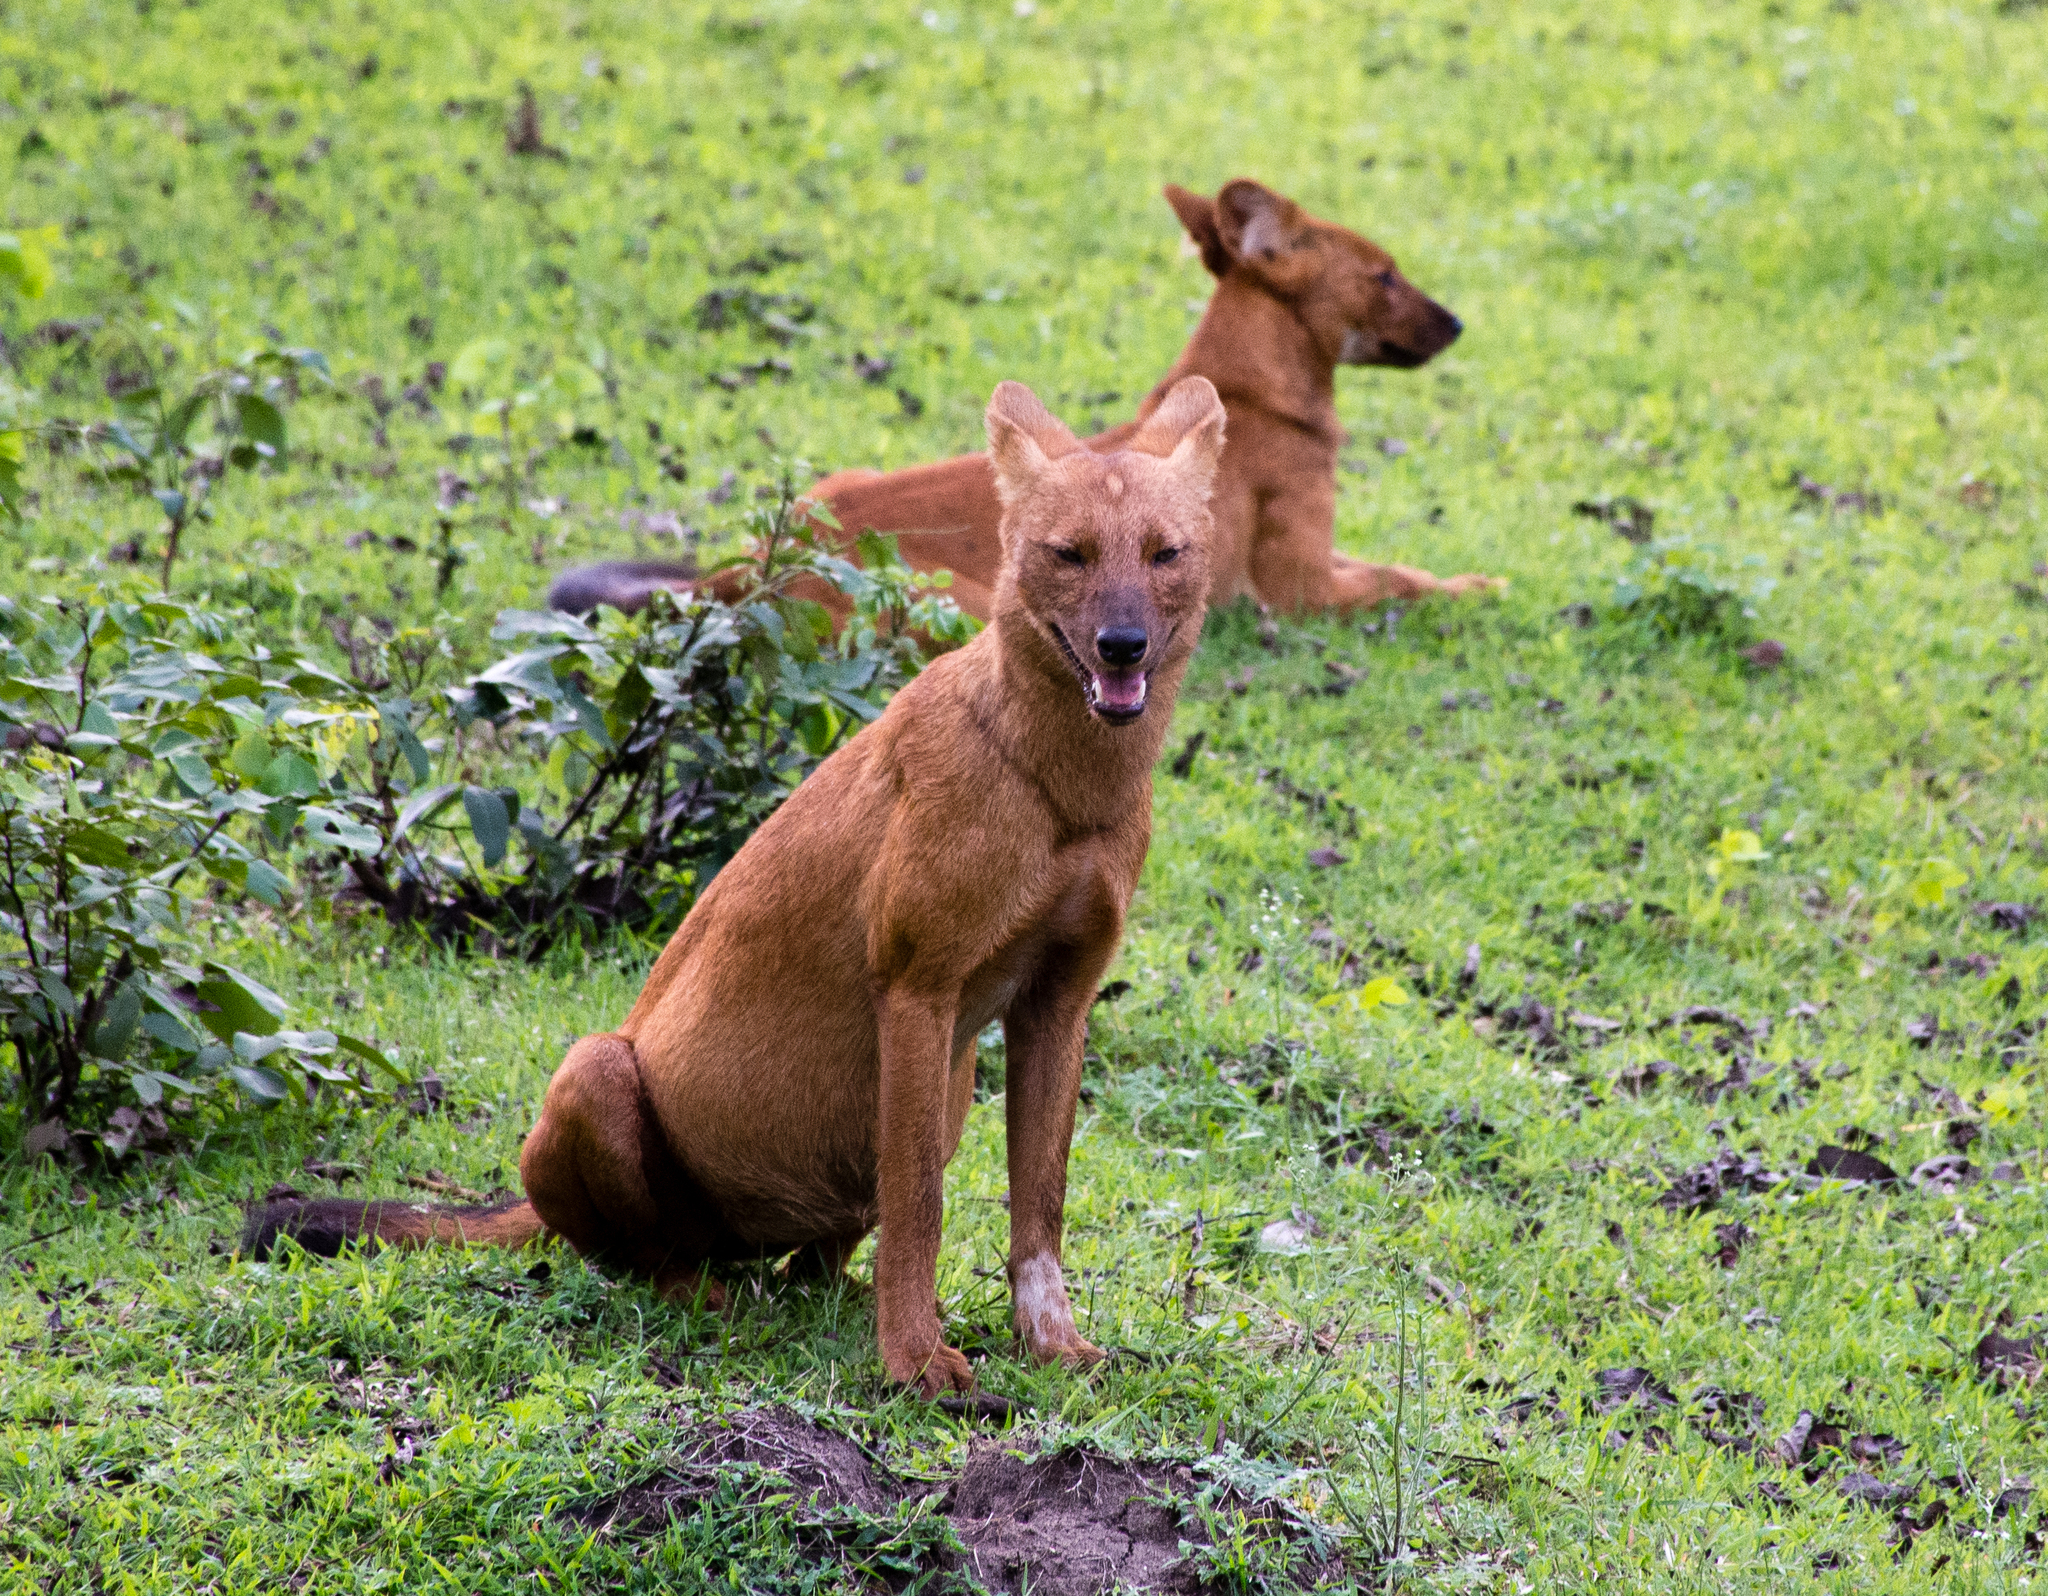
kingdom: Animalia
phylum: Chordata
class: Mammalia
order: Carnivora
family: Canidae
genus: Cuon
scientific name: Cuon alpinus
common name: Dhole
